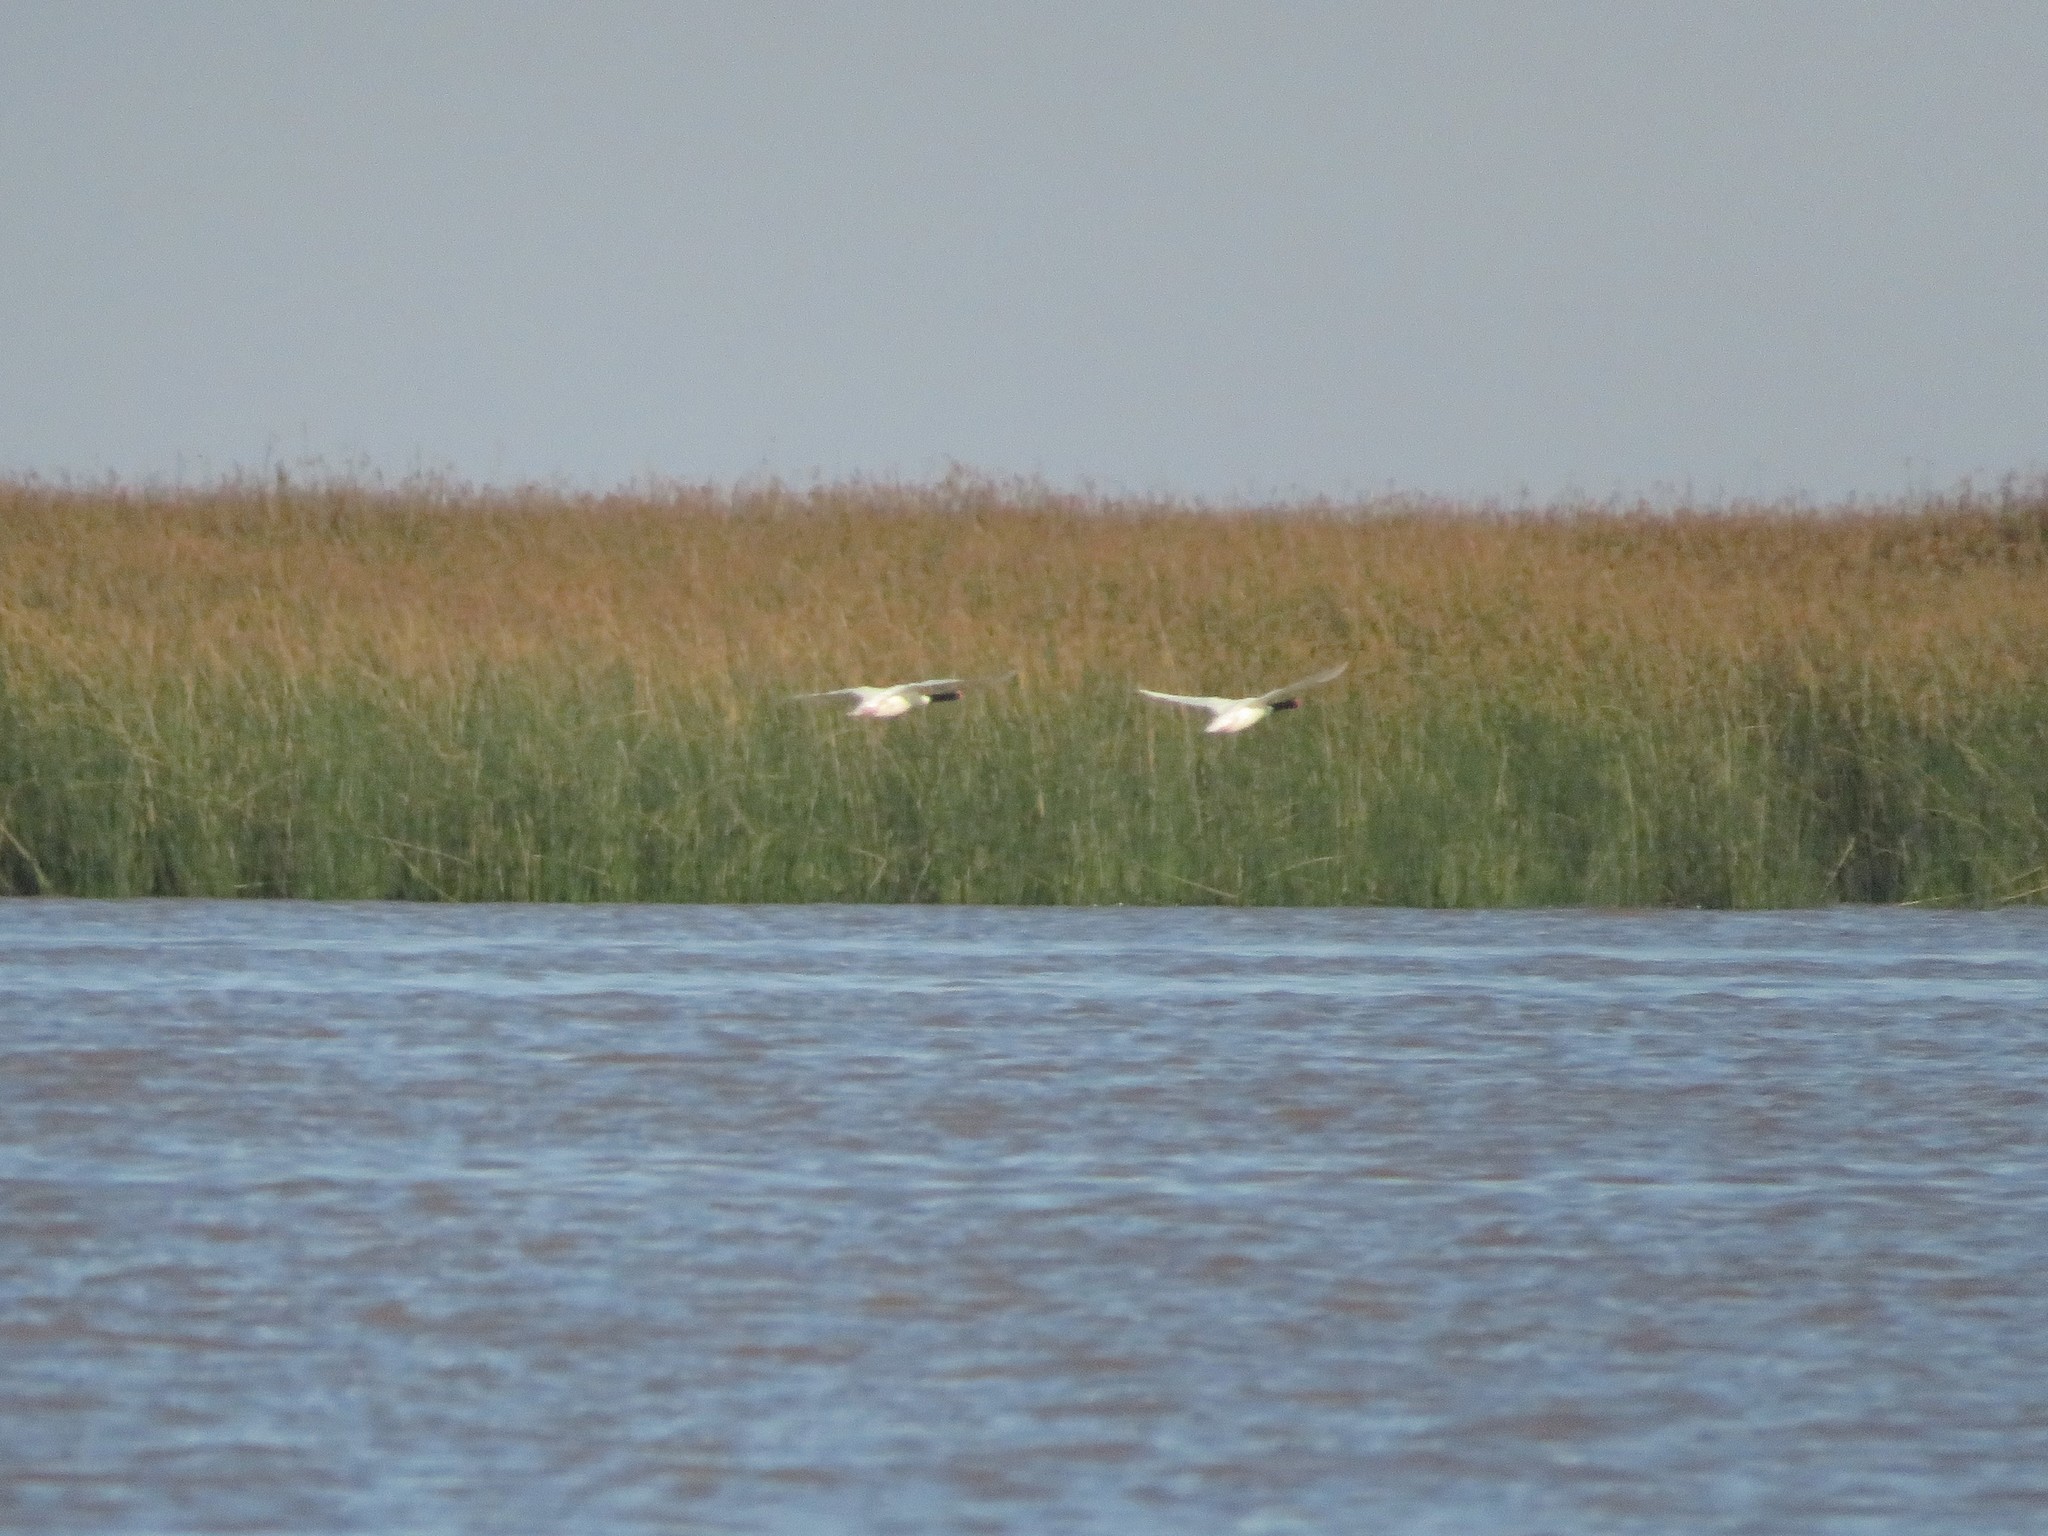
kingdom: Animalia
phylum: Chordata
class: Aves
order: Anseriformes
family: Anatidae
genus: Cygnus
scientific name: Cygnus melancoryphus
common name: Black-necked swan
